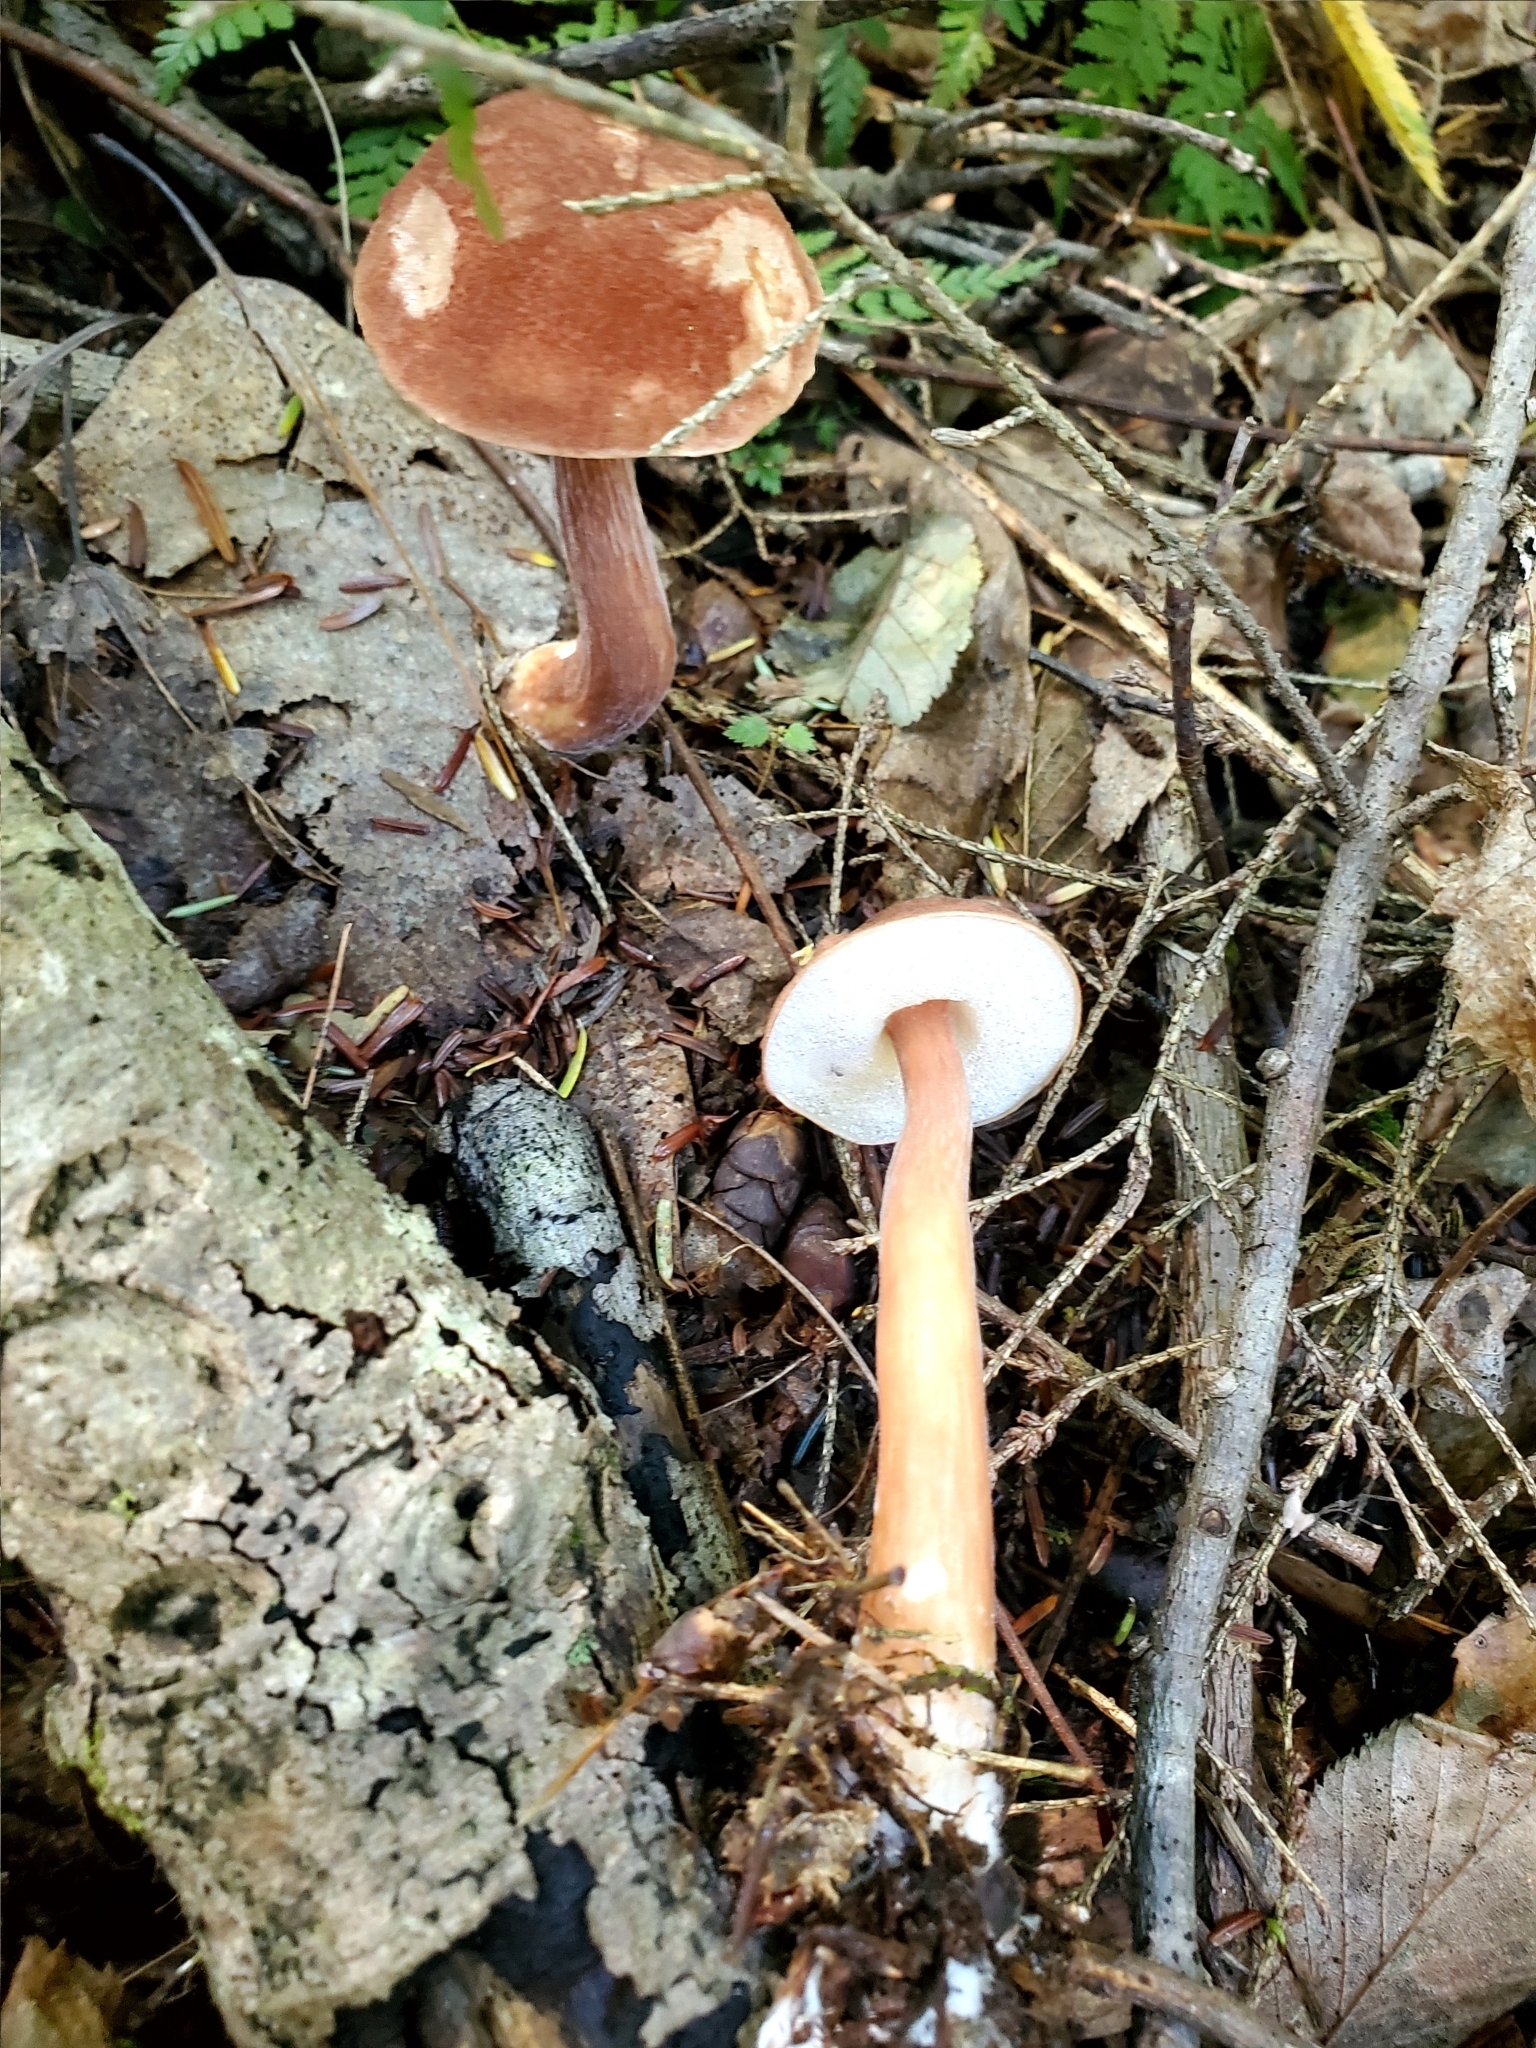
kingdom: Fungi
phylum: Basidiomycota
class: Agaricomycetes
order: Boletales
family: Boletaceae
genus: Austroboletus
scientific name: Austroboletus gracilis
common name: Graceful bolete
